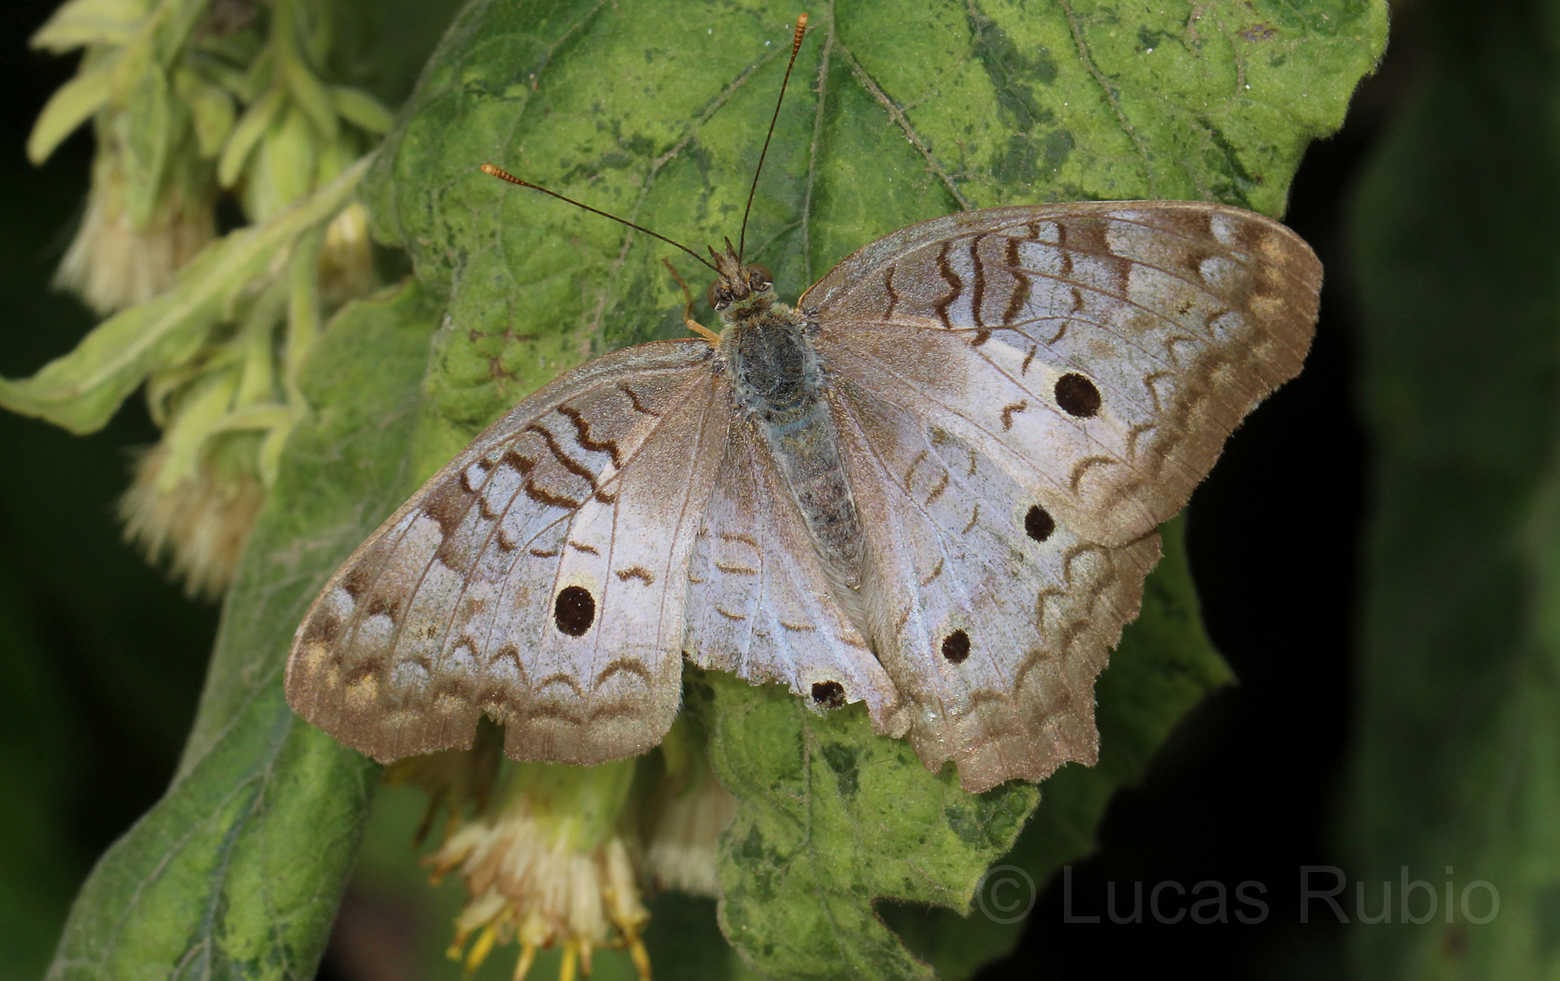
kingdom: Animalia
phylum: Arthropoda
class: Insecta
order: Lepidoptera
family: Nymphalidae
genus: Anartia
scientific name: Anartia jatrophae
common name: White peacock
